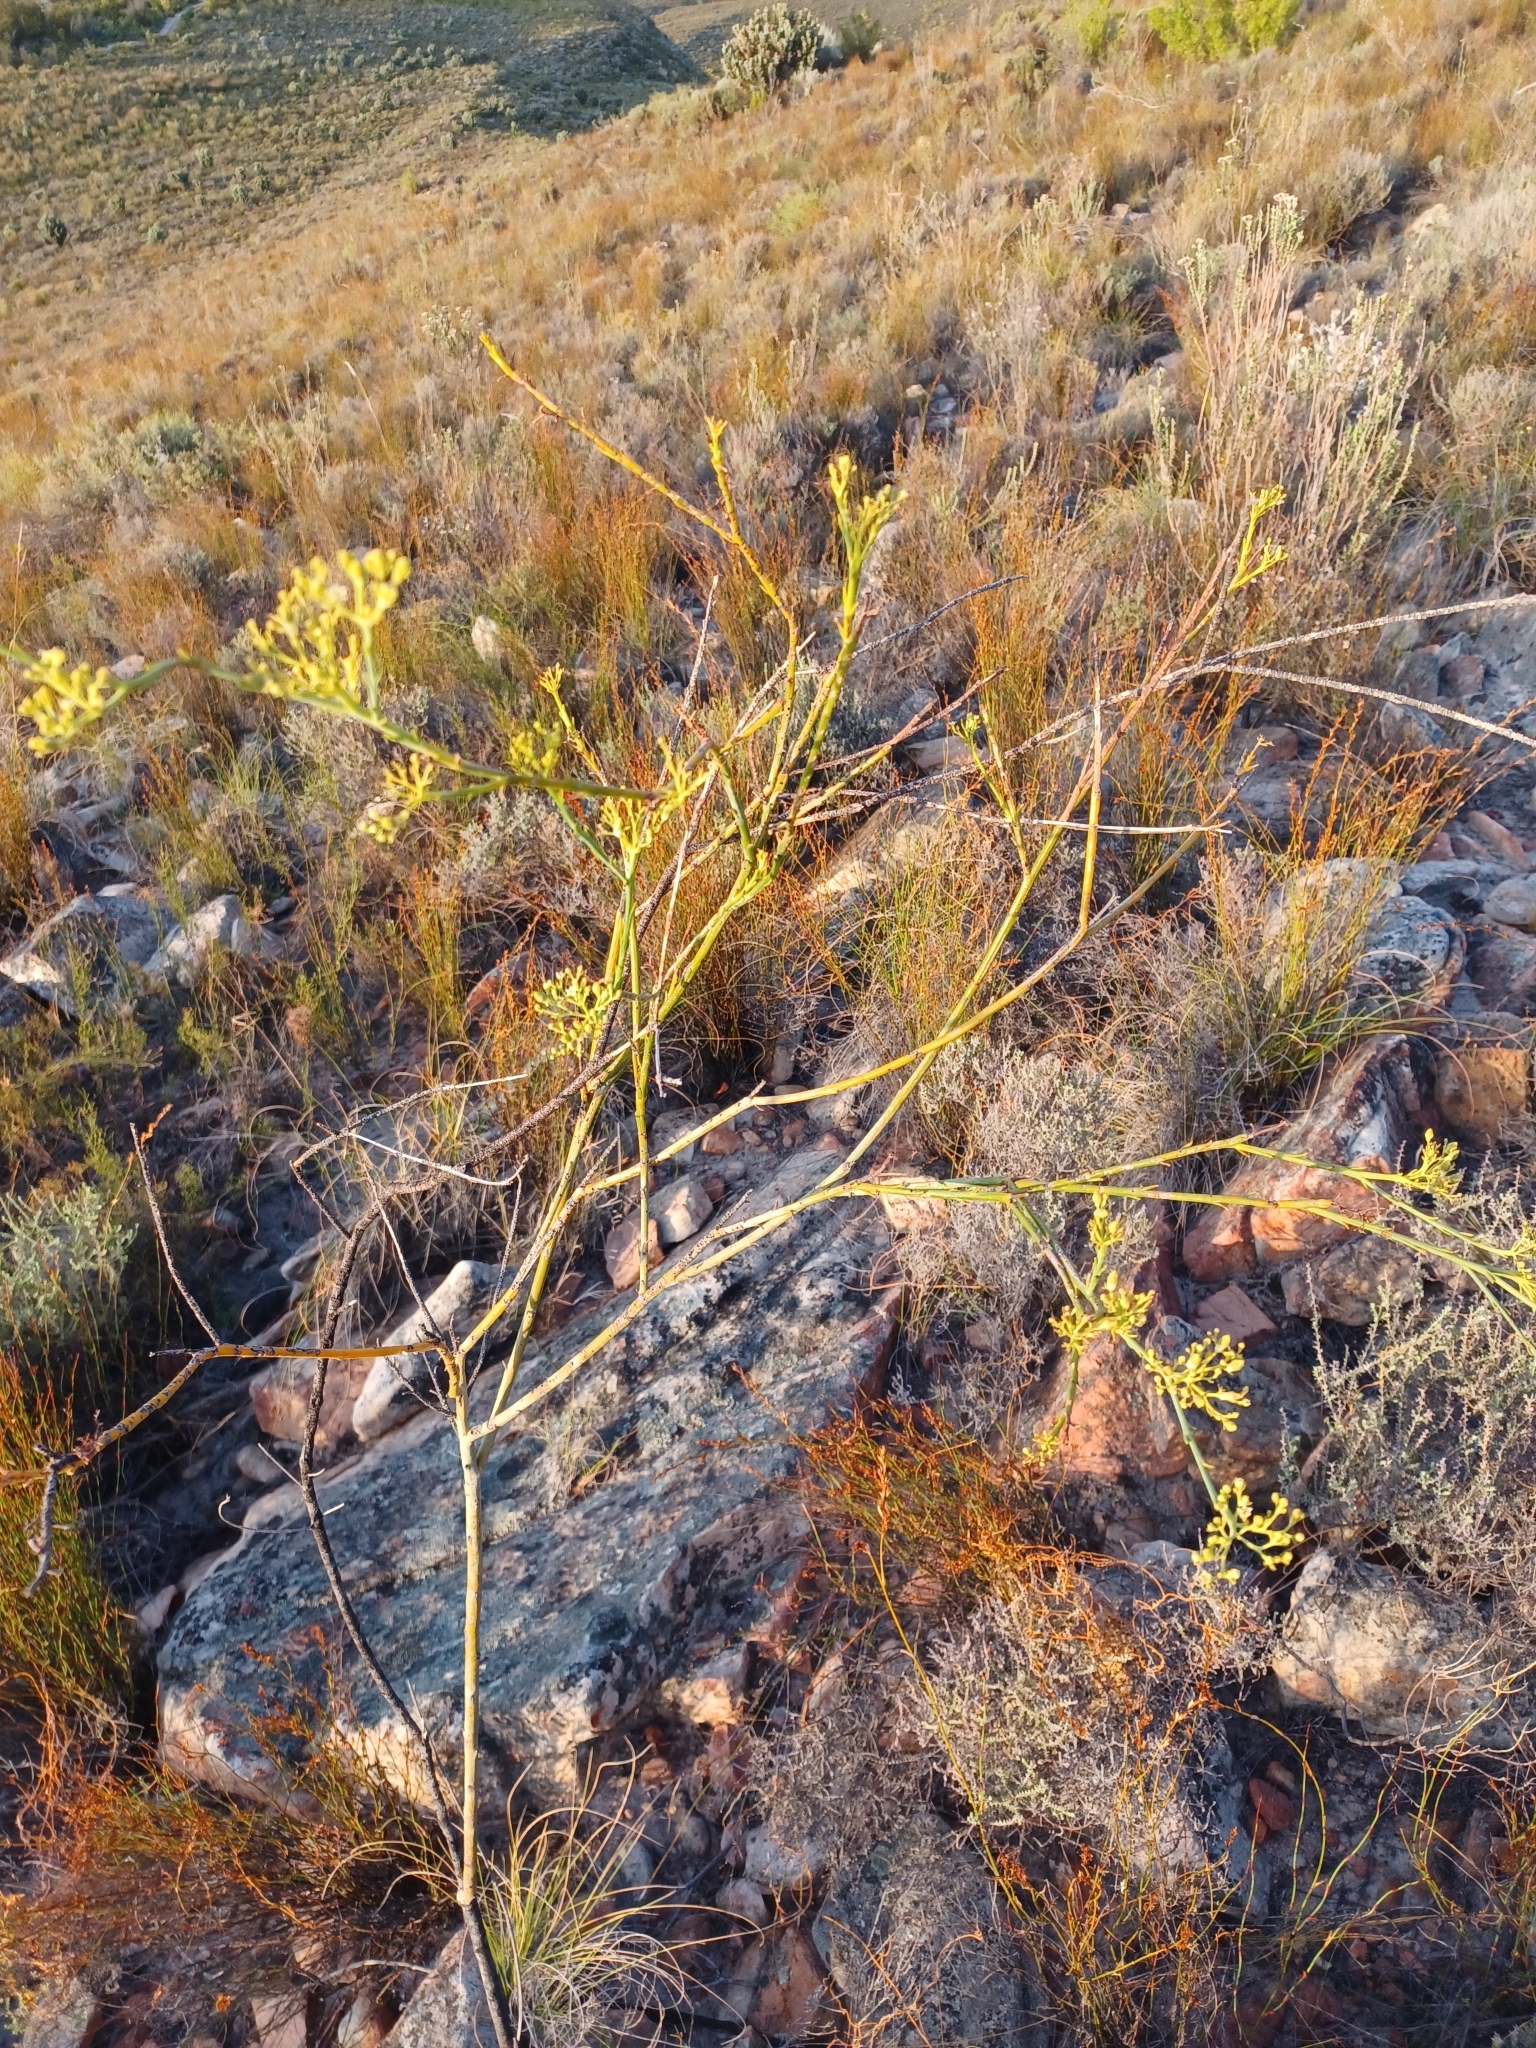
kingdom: Plantae
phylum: Tracheophyta
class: Magnoliopsida
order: Santalales
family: Thesiaceae
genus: Thesium
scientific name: Thesium strictum
